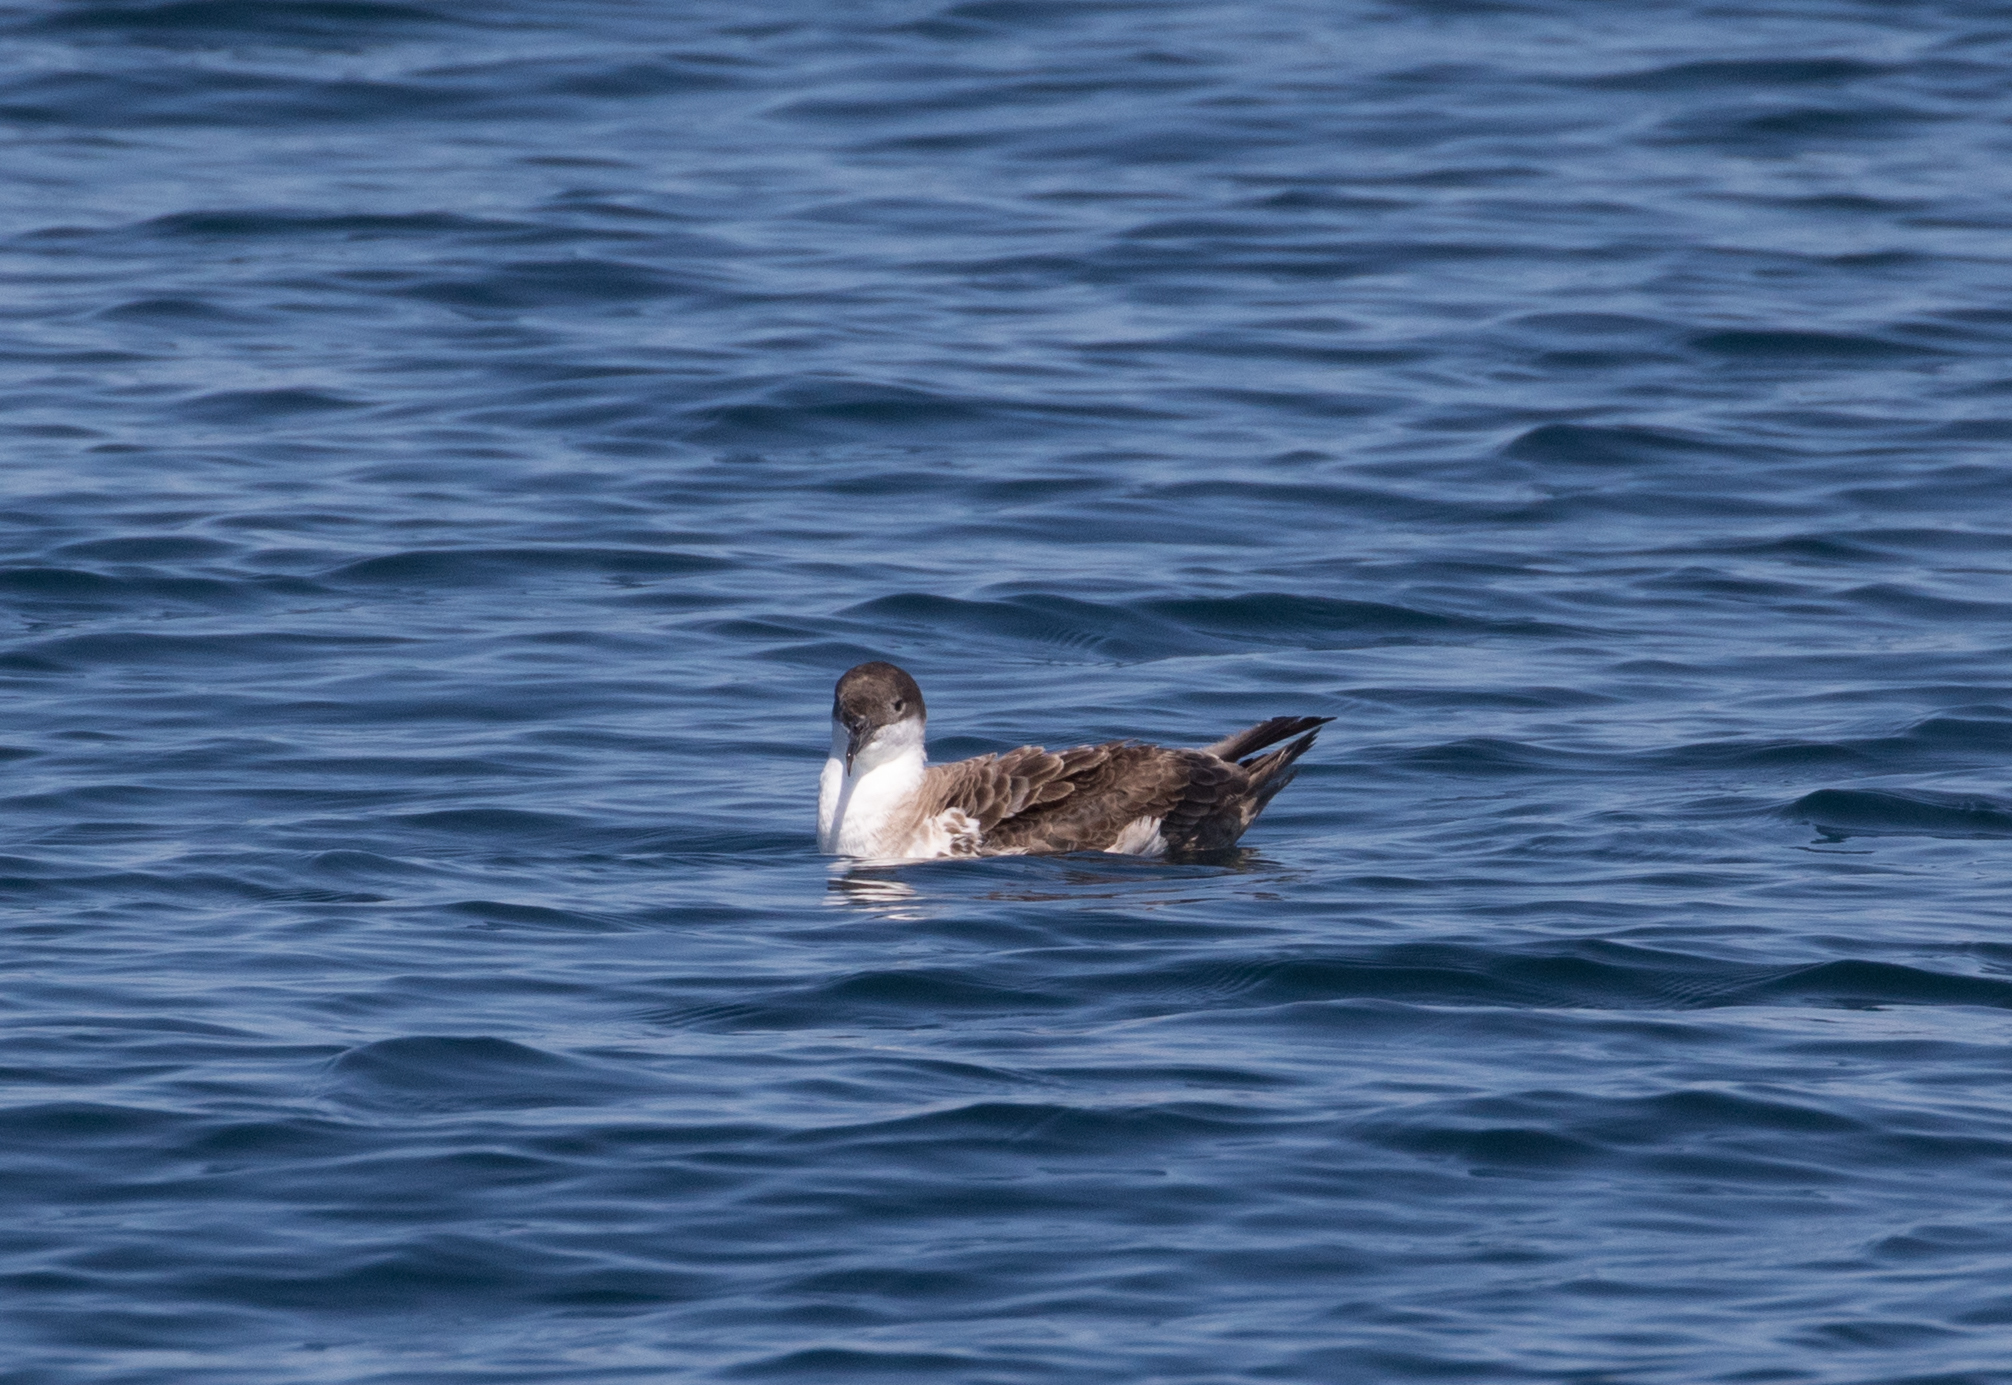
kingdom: Animalia
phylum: Chordata
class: Aves
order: Procellariiformes
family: Procellariidae
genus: Puffinus
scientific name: Puffinus gravis
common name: Great shearwater
